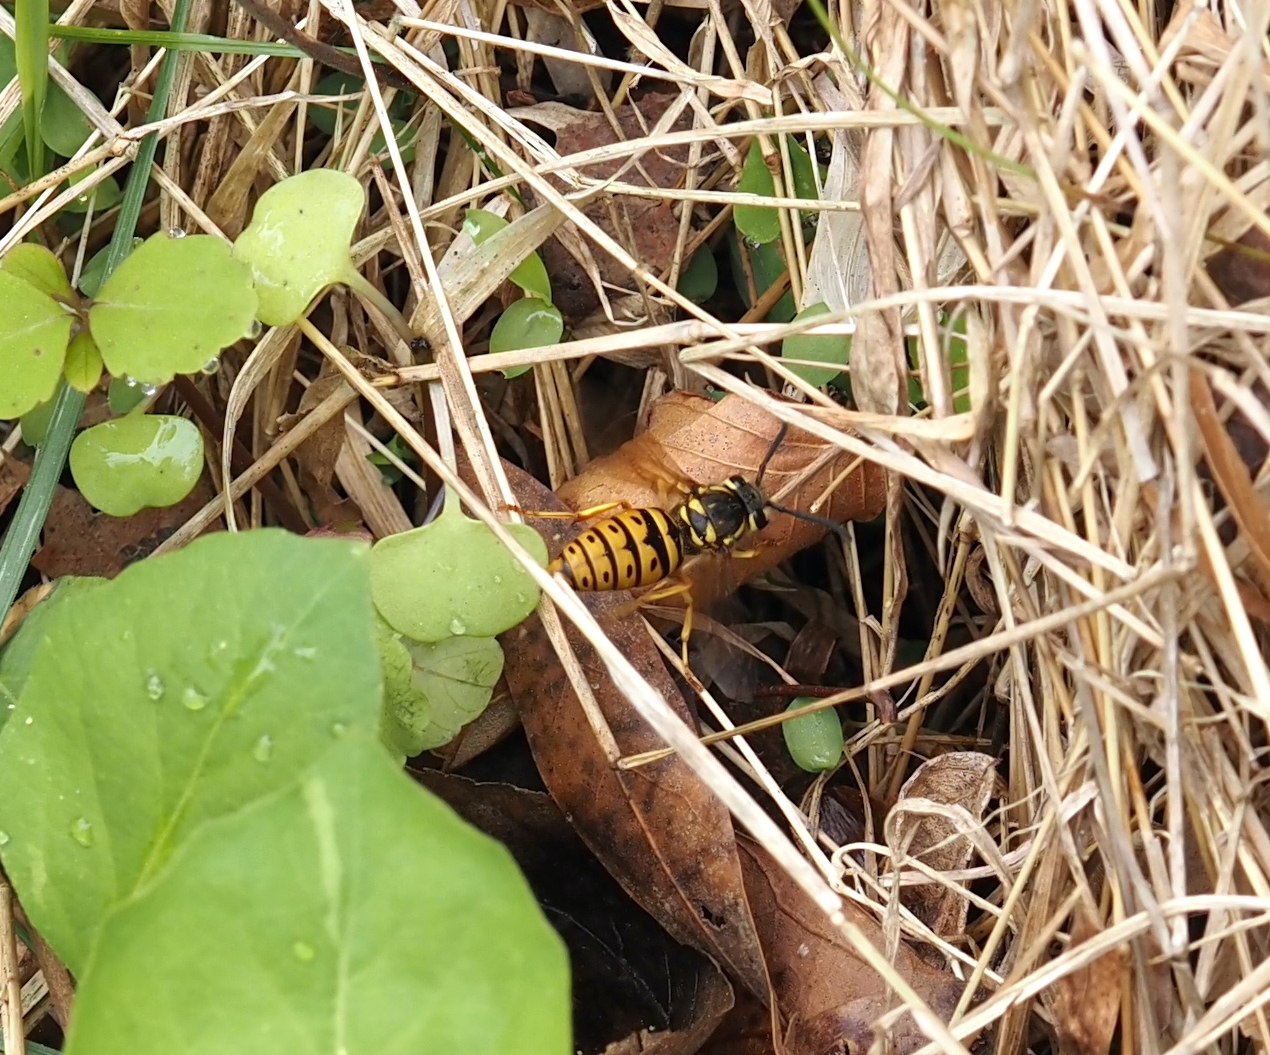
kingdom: Animalia
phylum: Arthropoda
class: Insecta
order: Hymenoptera
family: Vespidae
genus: Vespula
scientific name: Vespula maculifrons
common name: Eastern yellowjacket
